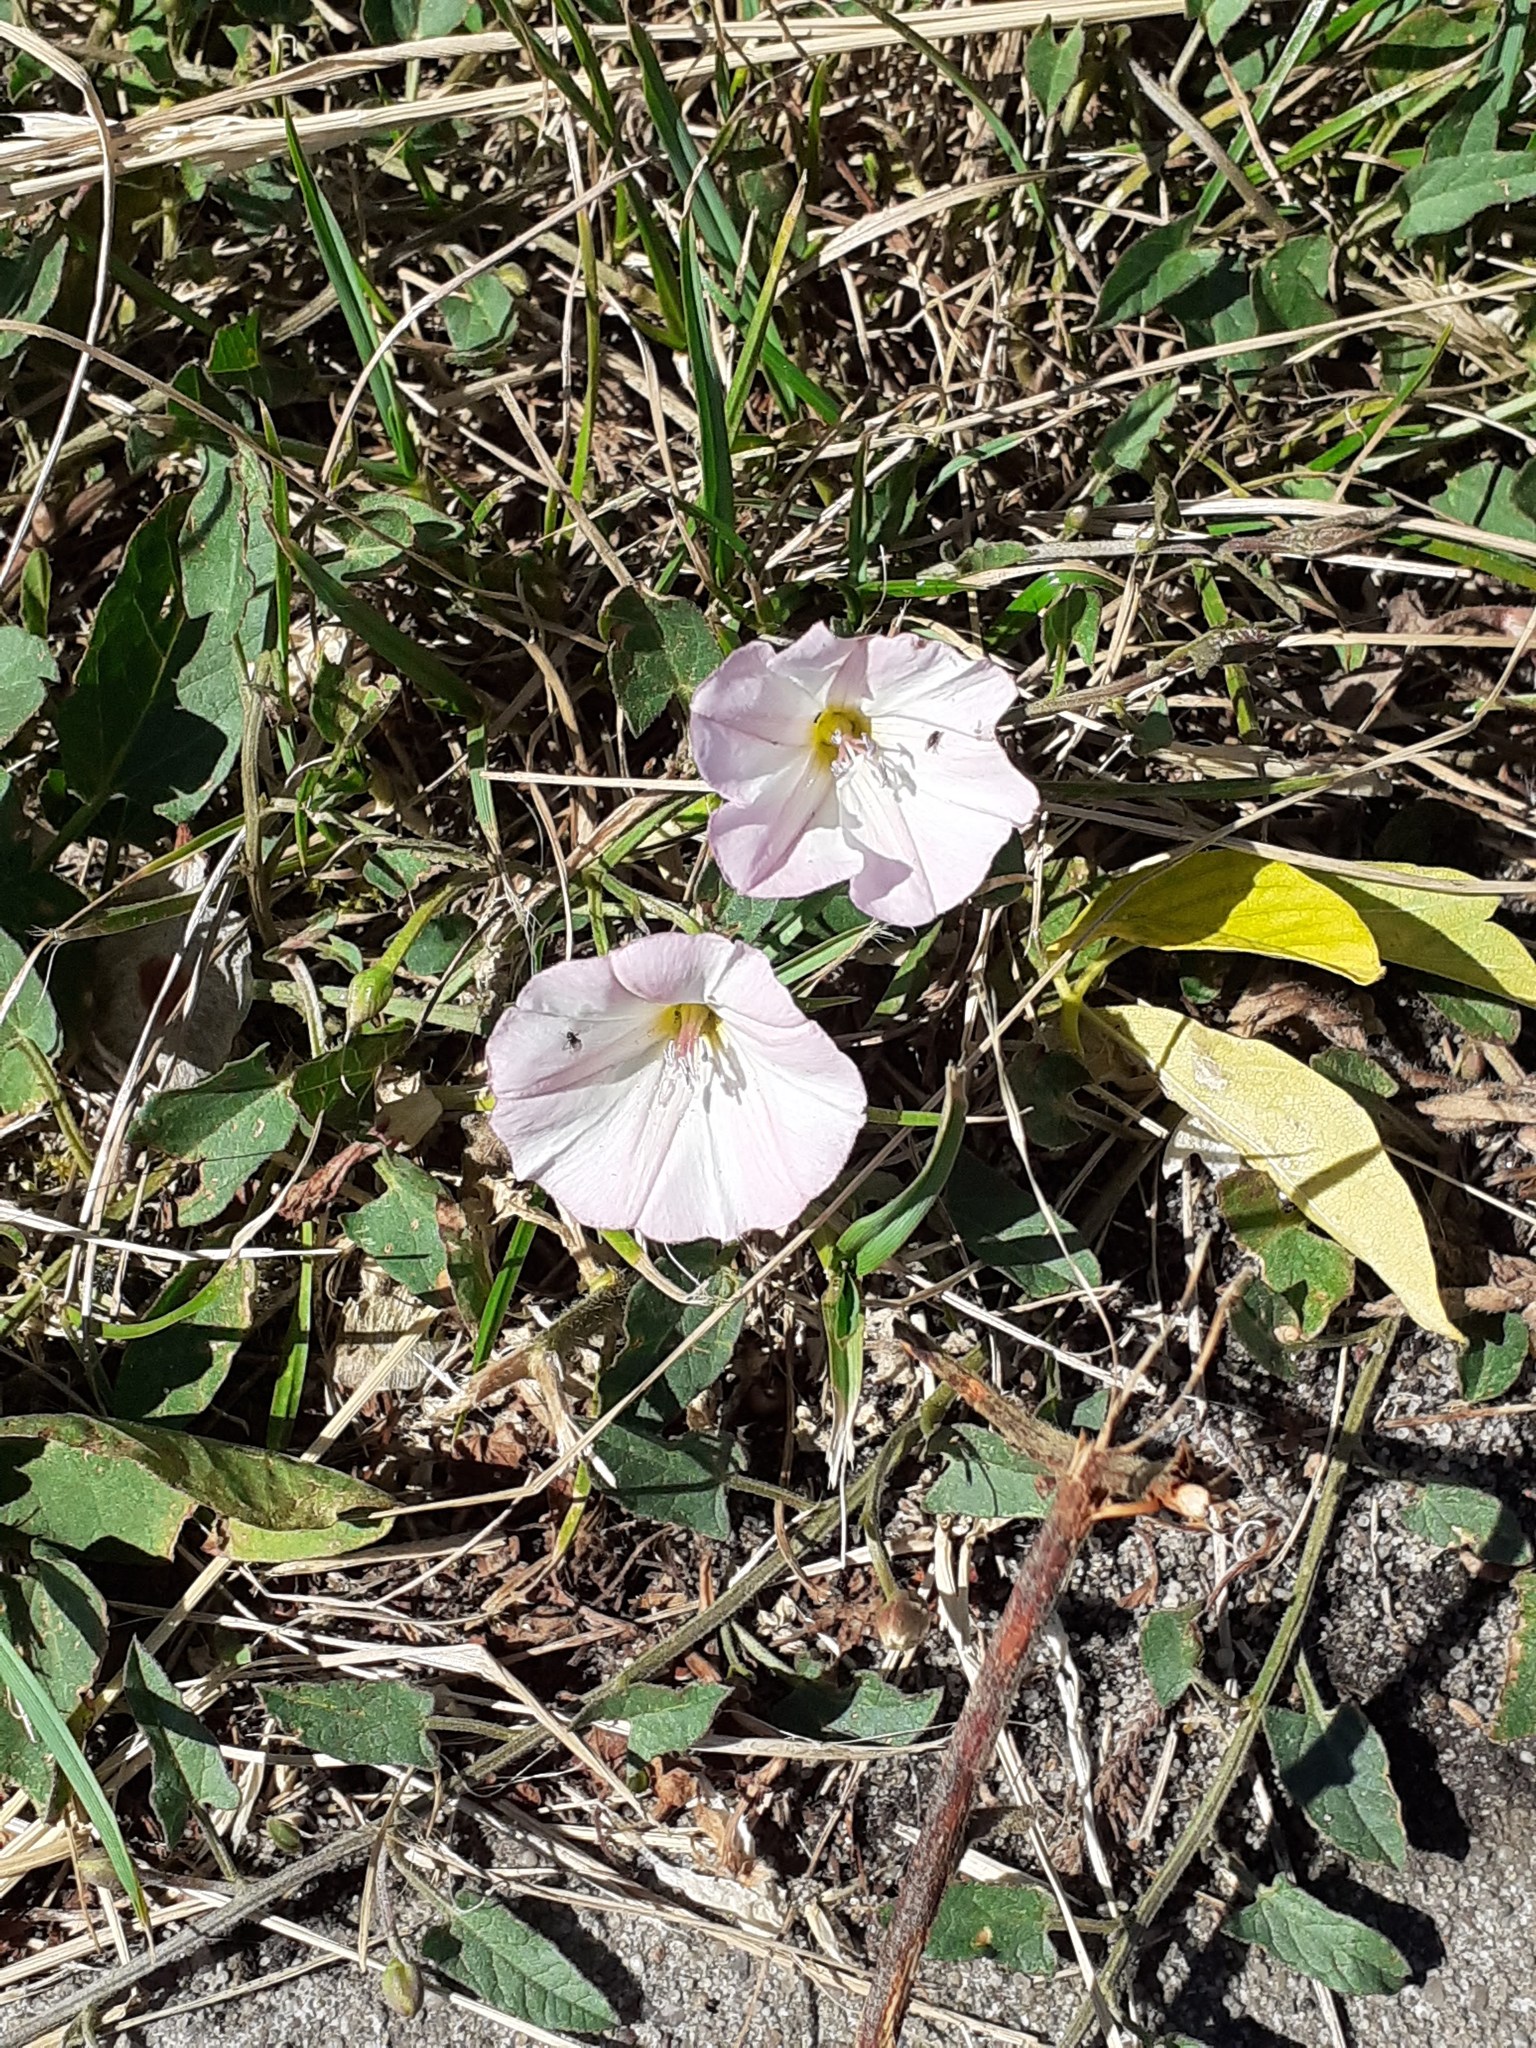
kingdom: Plantae
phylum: Tracheophyta
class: Magnoliopsida
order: Solanales
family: Convolvulaceae
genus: Convolvulus
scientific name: Convolvulus arvensis
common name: Field bindweed
